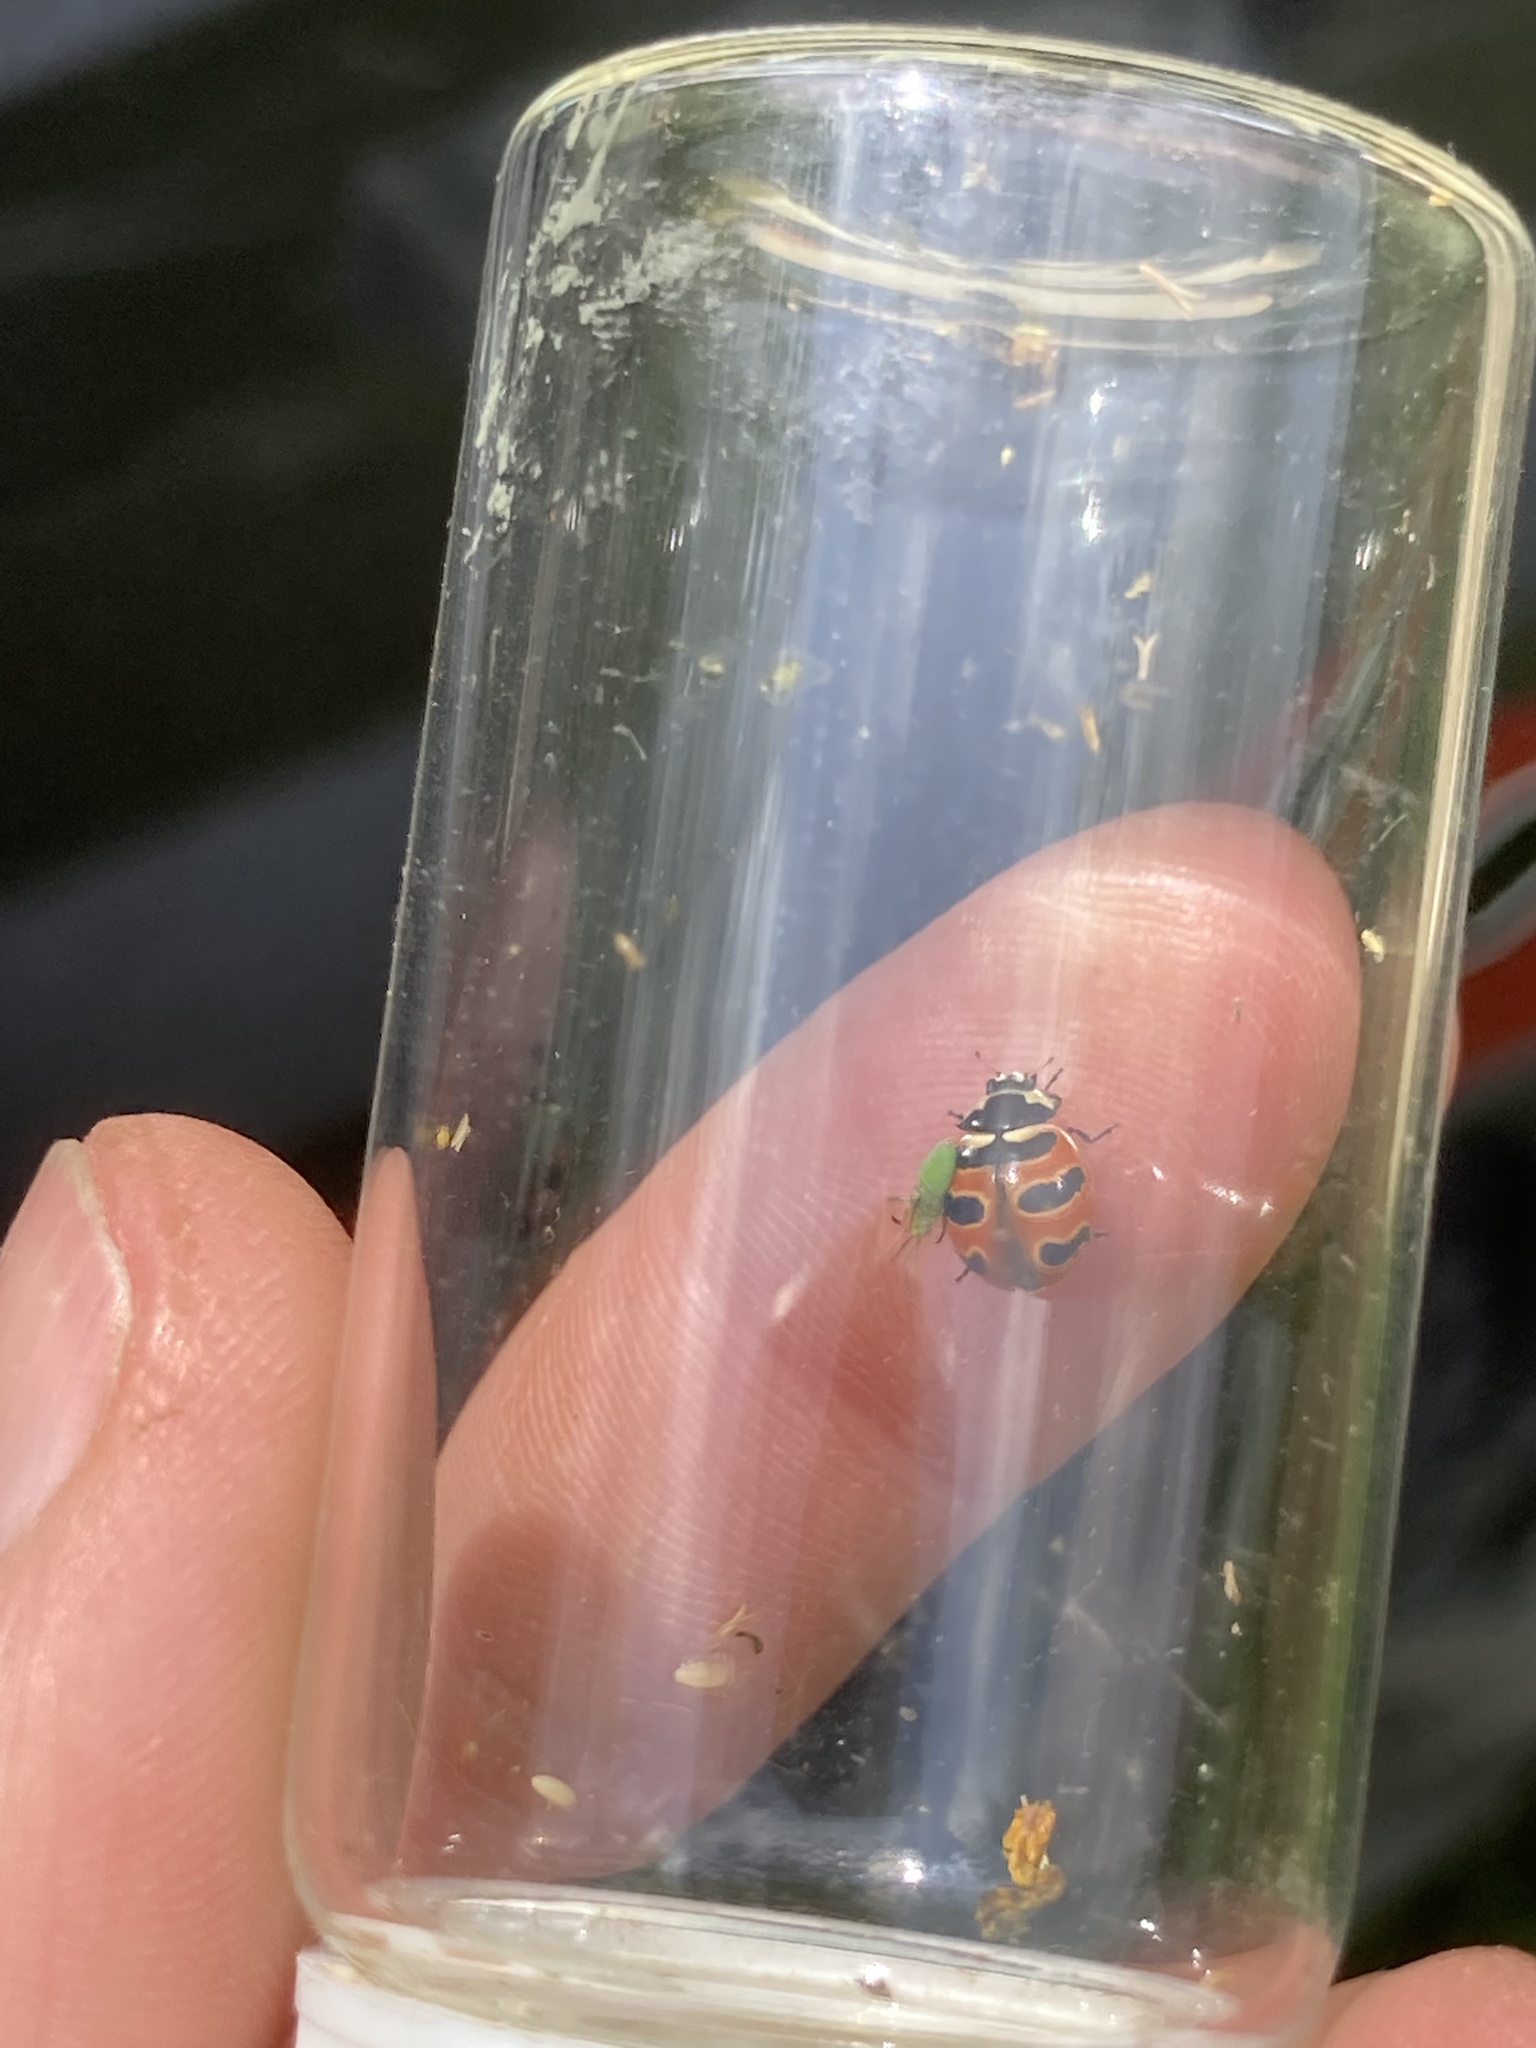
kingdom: Animalia
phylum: Arthropoda
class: Insecta
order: Coleoptera
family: Coccinellidae
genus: Coccinella
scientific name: Coccinella trifasciata
